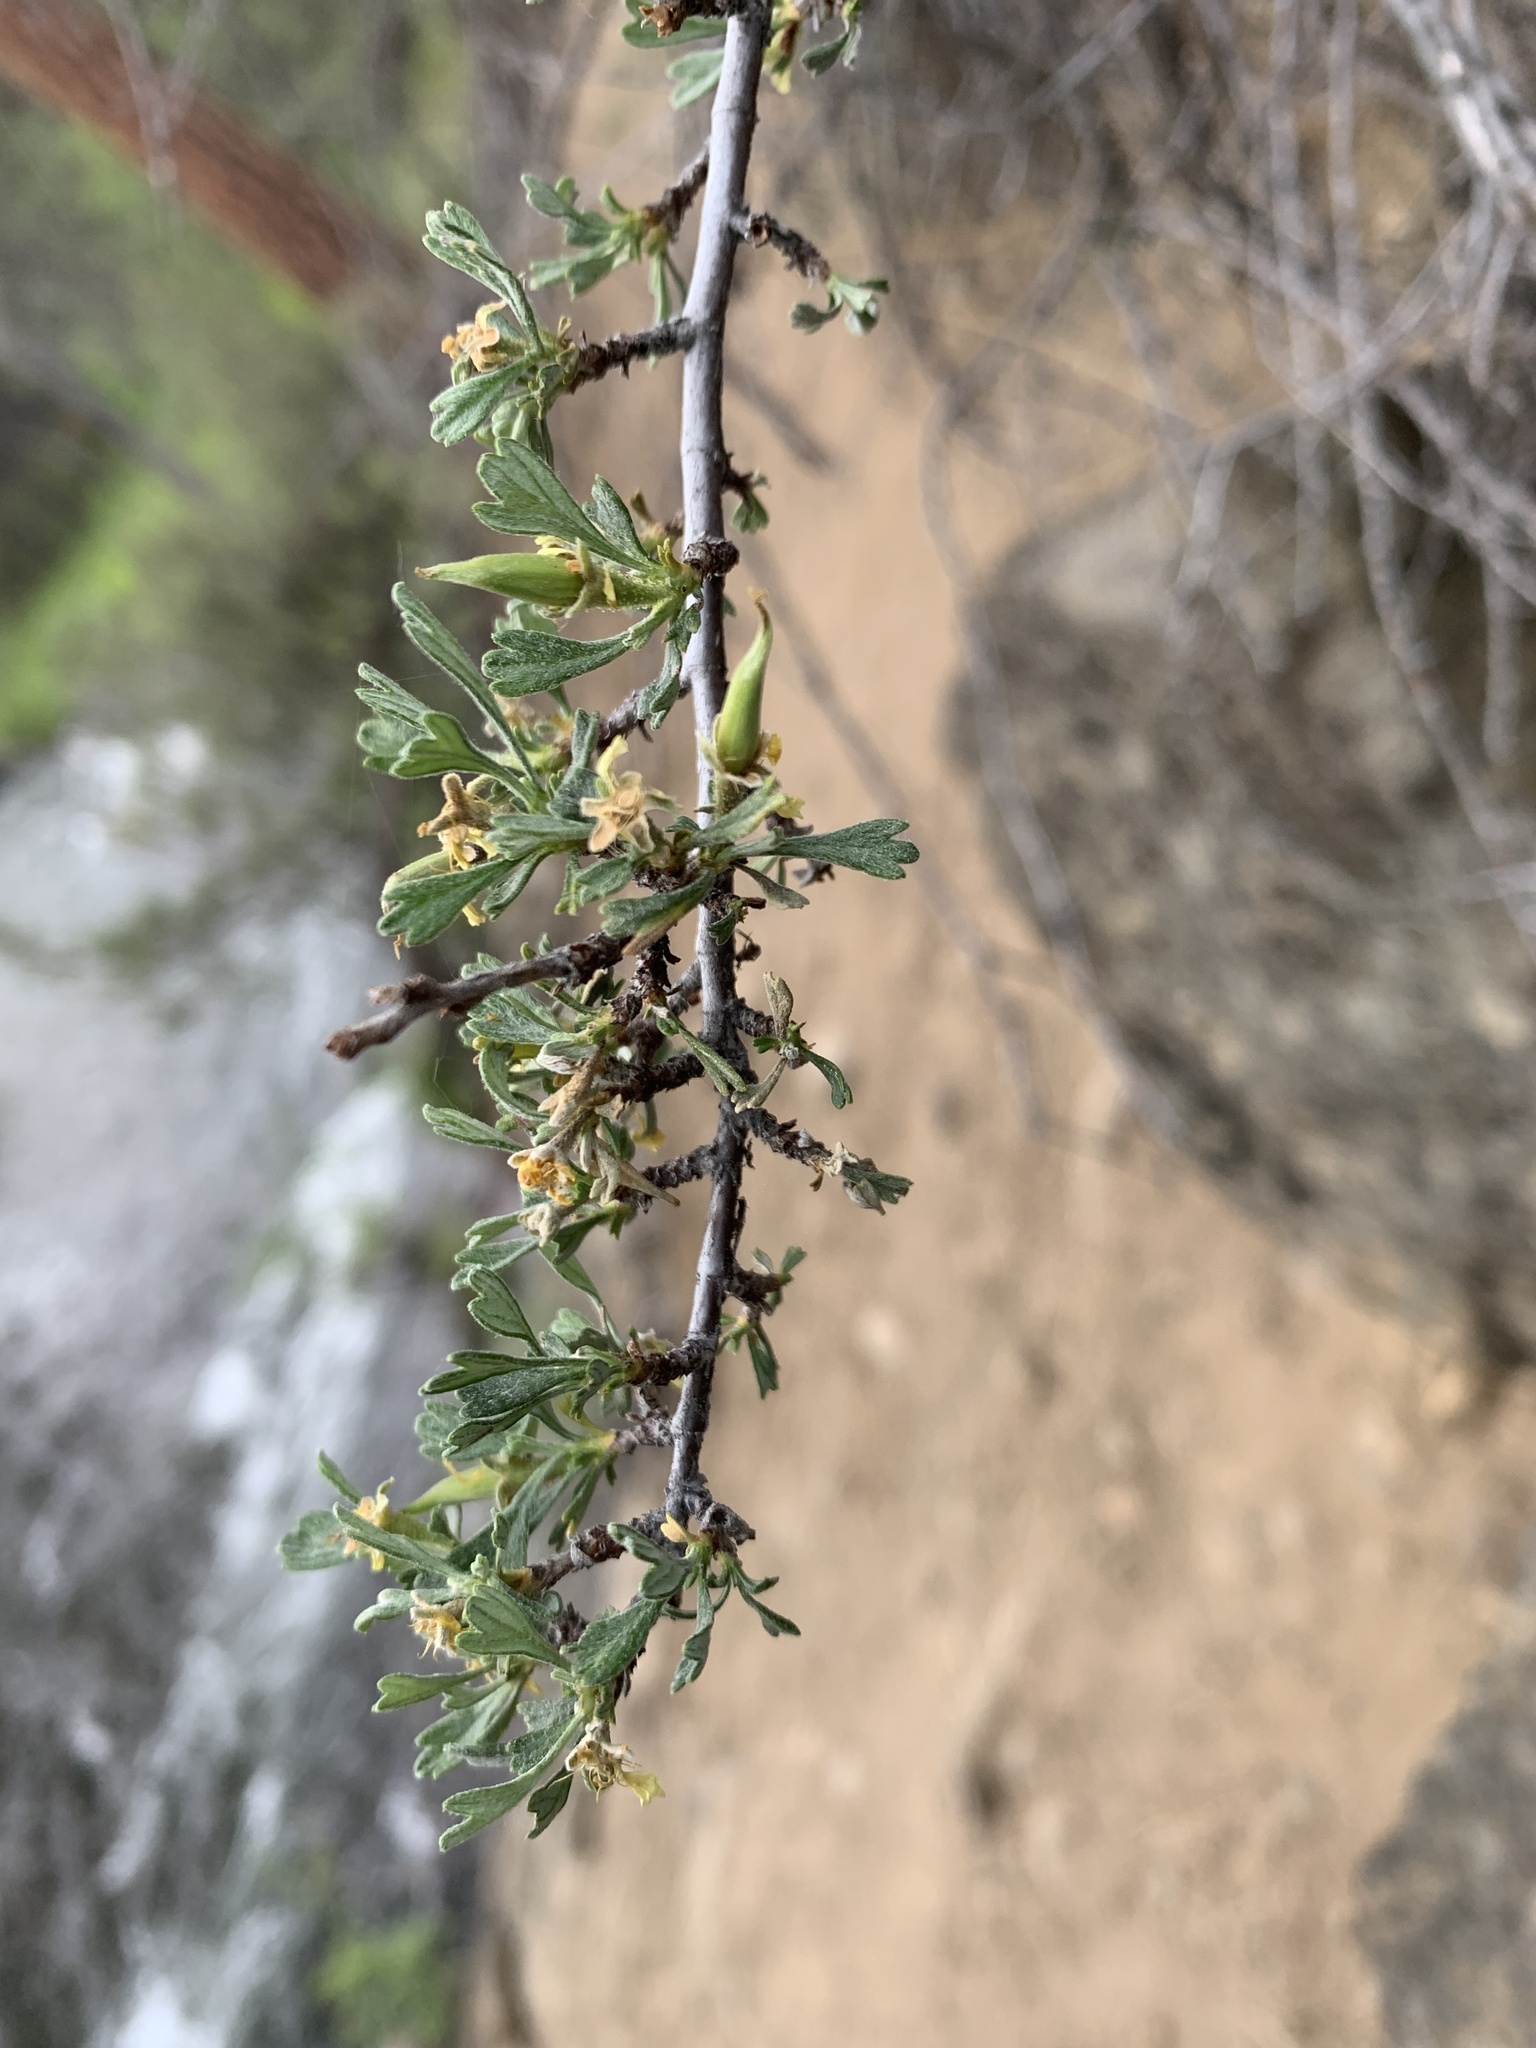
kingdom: Plantae
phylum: Tracheophyta
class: Magnoliopsida
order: Rosales
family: Rosaceae
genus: Purshia
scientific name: Purshia tridentata
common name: Antelope bitterbrush
